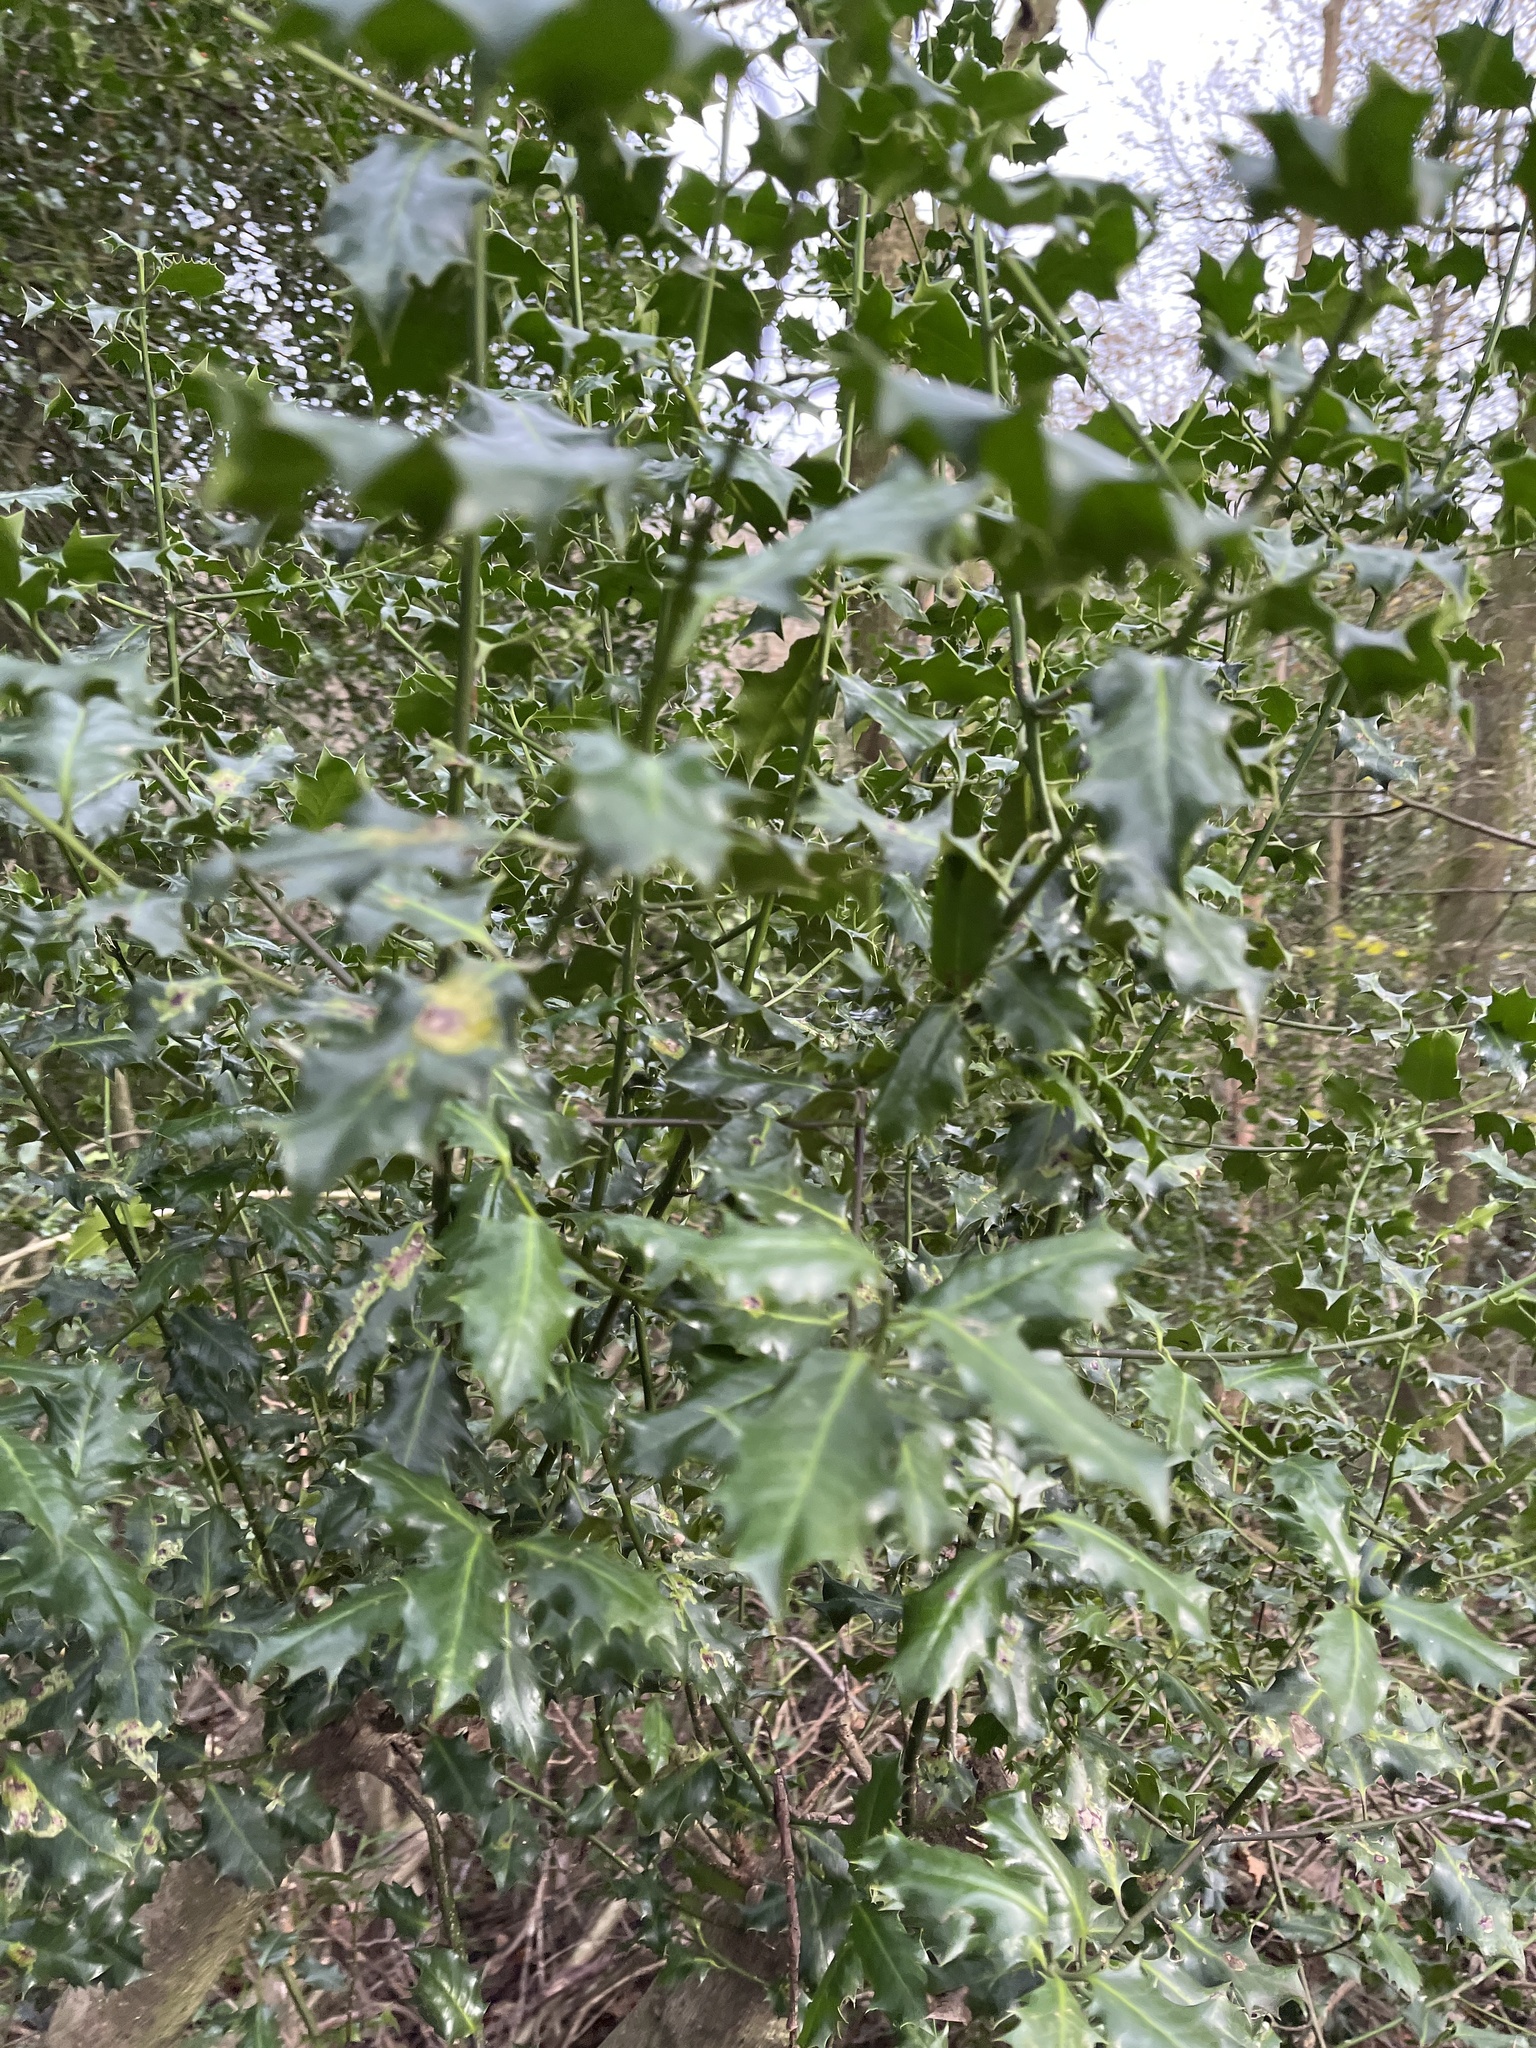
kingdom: Plantae
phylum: Tracheophyta
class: Magnoliopsida
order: Aquifoliales
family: Aquifoliaceae
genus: Ilex
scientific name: Ilex aquifolium
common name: English holly
